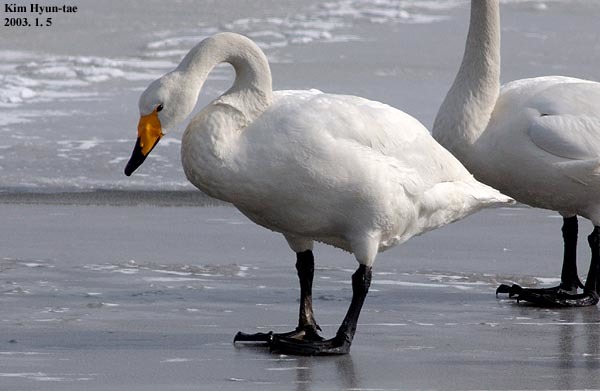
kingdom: Animalia
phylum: Chordata
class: Aves
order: Anseriformes
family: Anatidae
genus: Cygnus
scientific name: Cygnus cygnus
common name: Whooper swan
